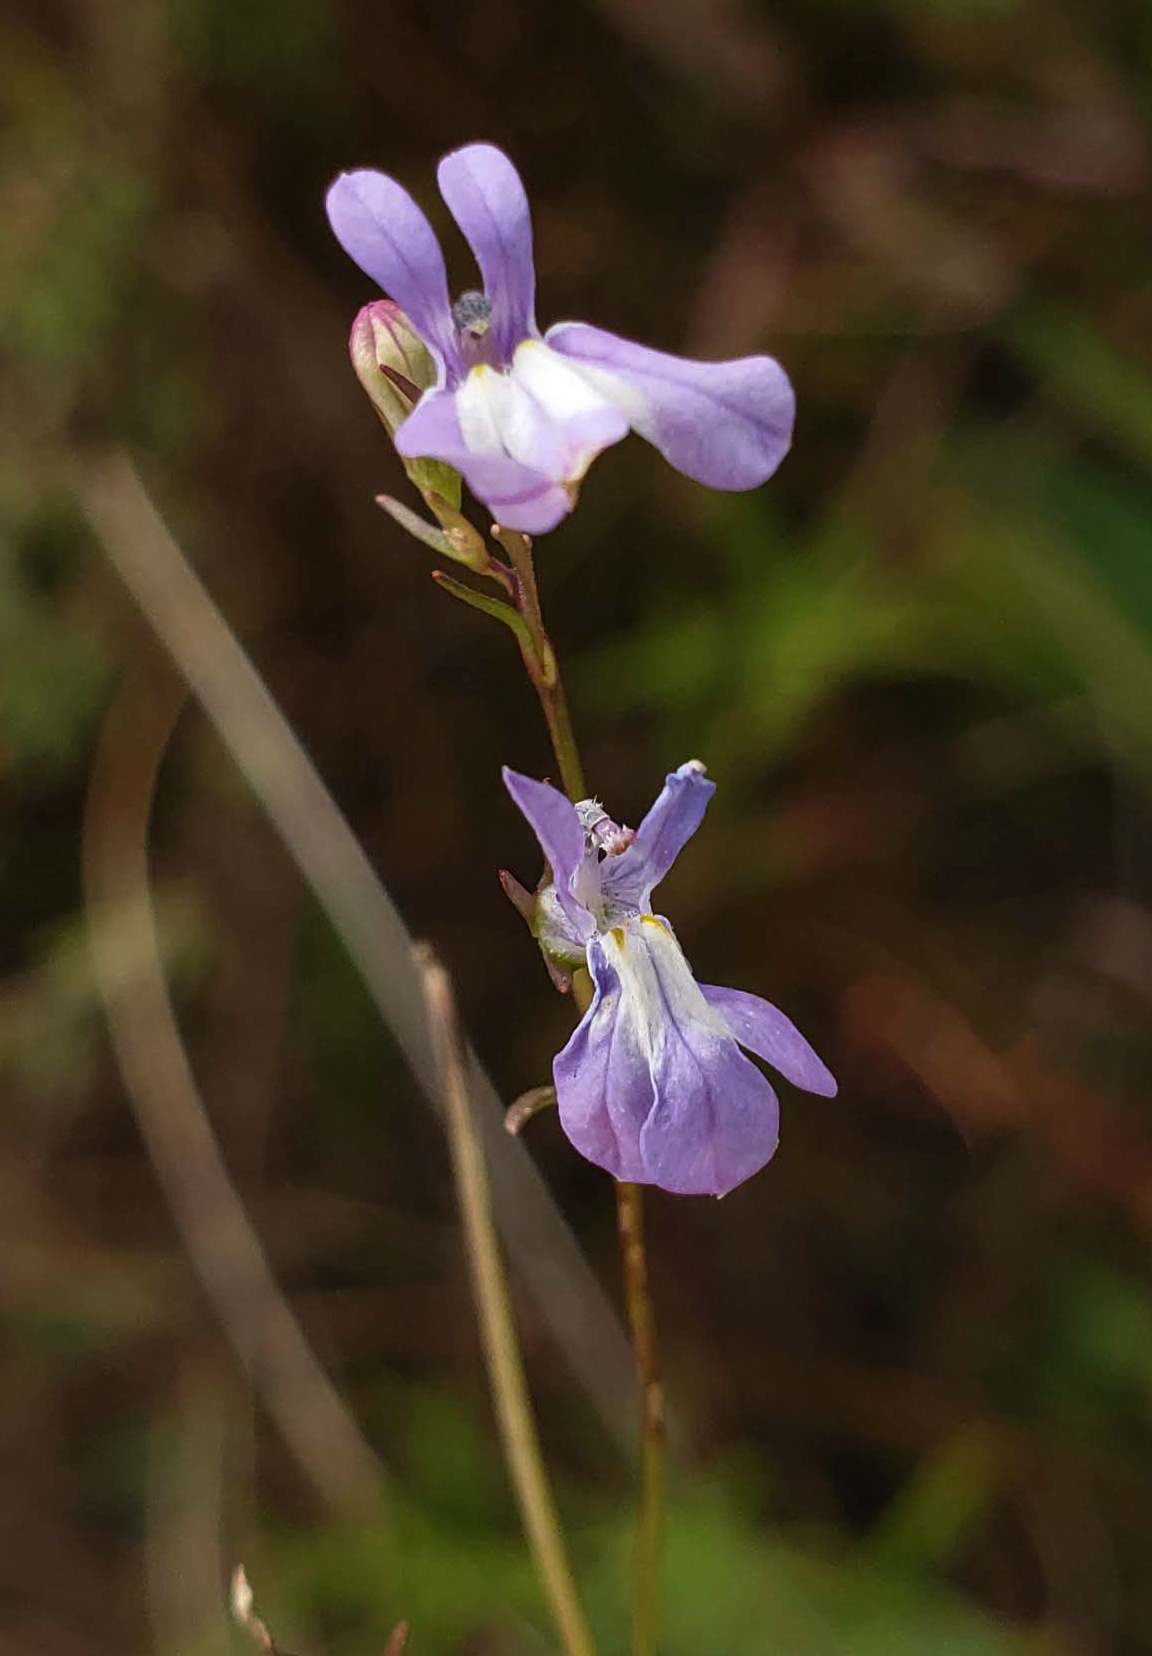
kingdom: Plantae
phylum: Tracheophyta
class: Magnoliopsida
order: Asterales
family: Campanulaceae
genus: Lobelia
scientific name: Lobelia kalmii
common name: Kalm's lobelia
